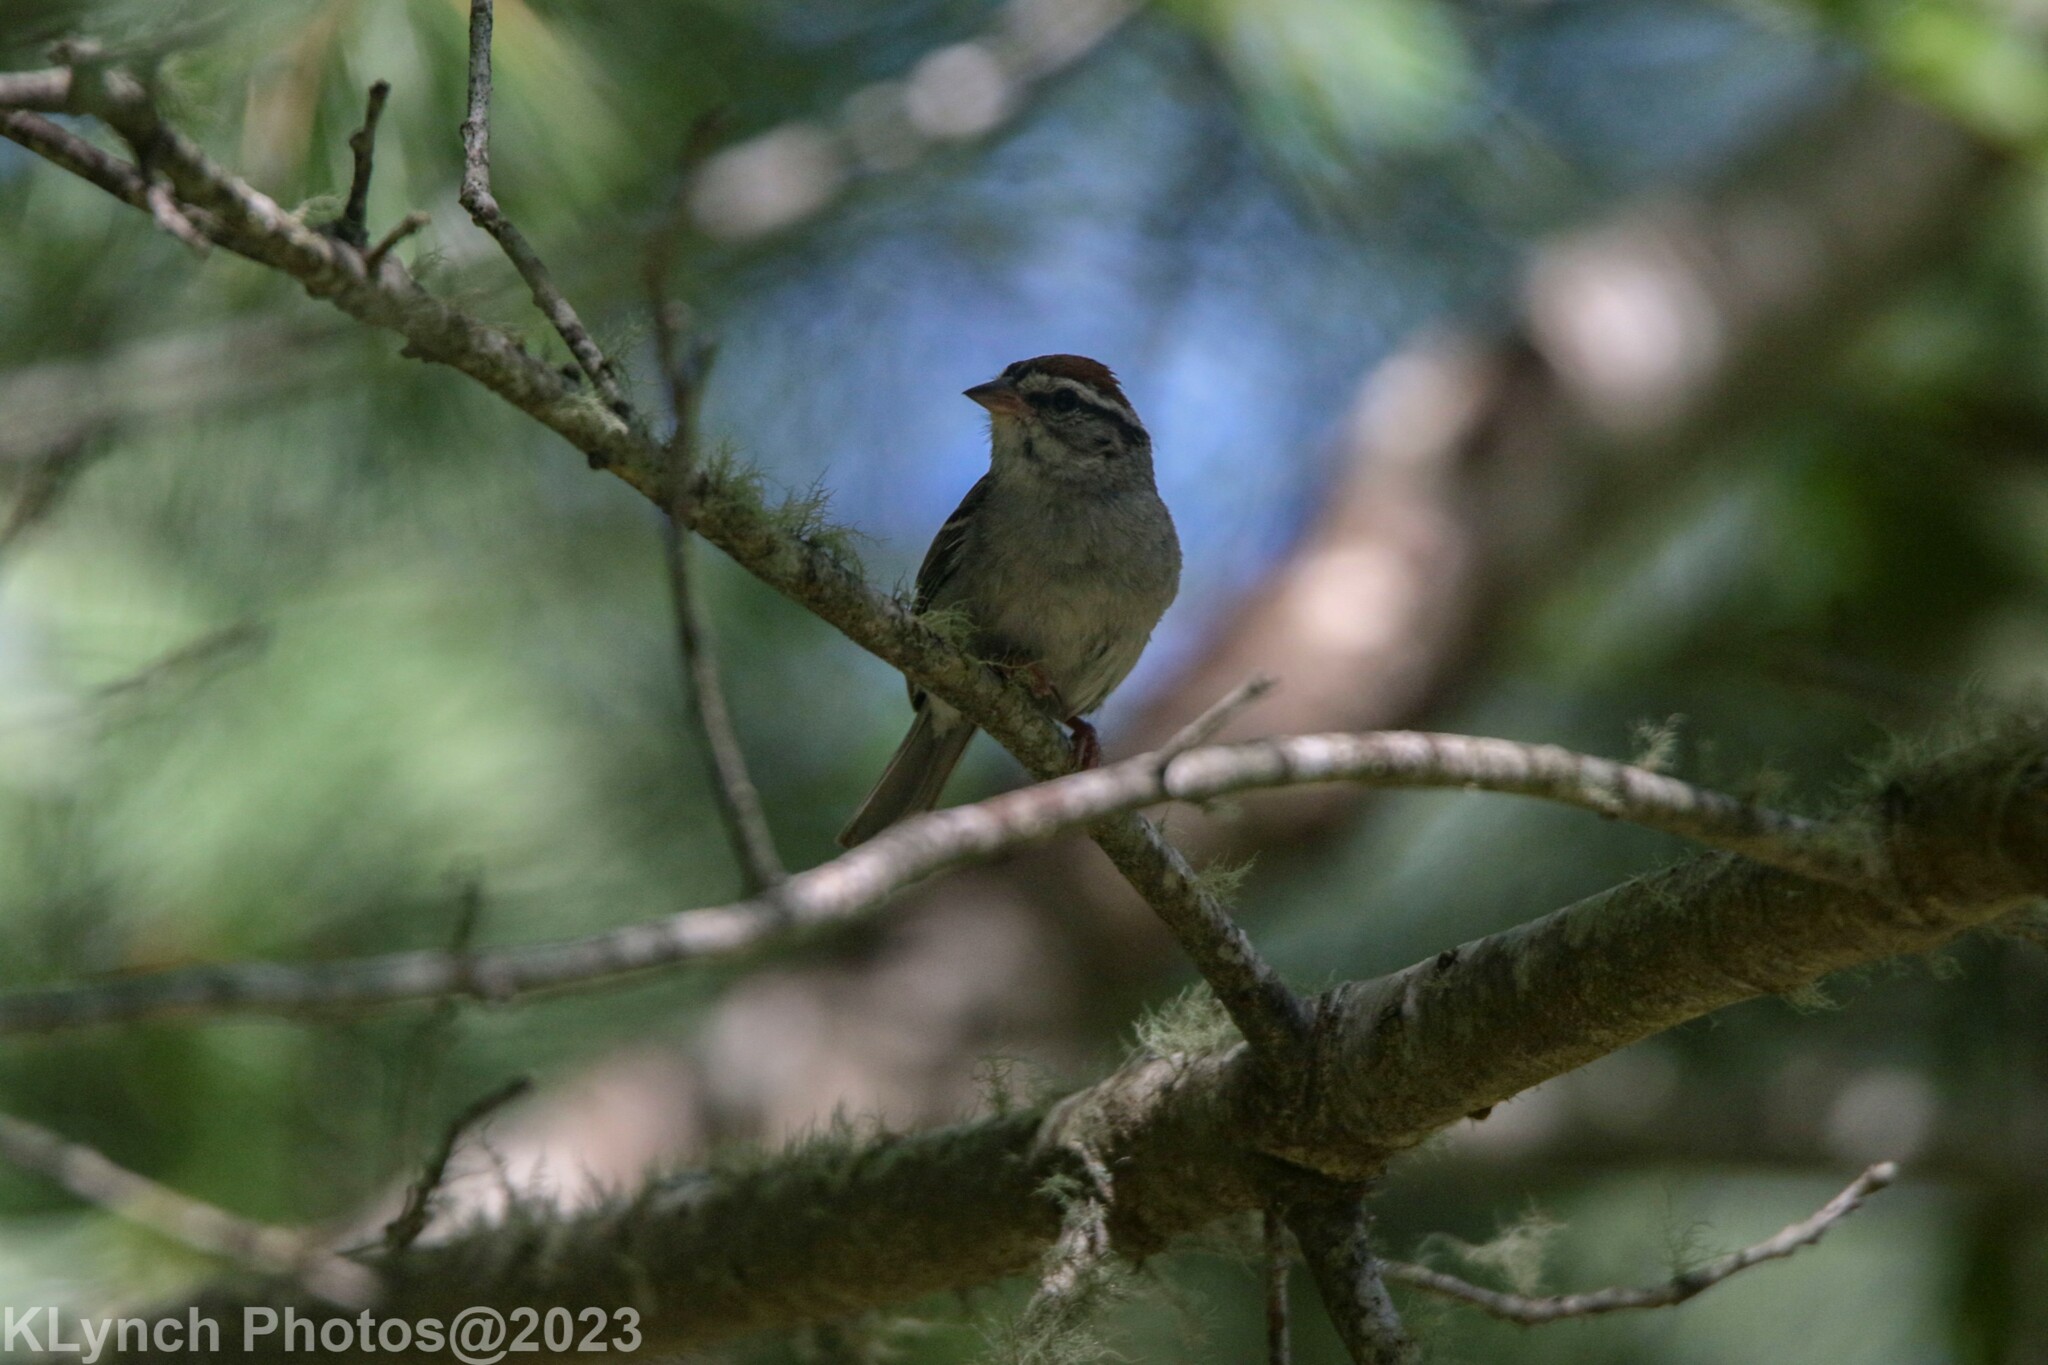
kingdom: Animalia
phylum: Chordata
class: Aves
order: Passeriformes
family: Passerellidae
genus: Spizella
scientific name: Spizella passerina
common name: Chipping sparrow
